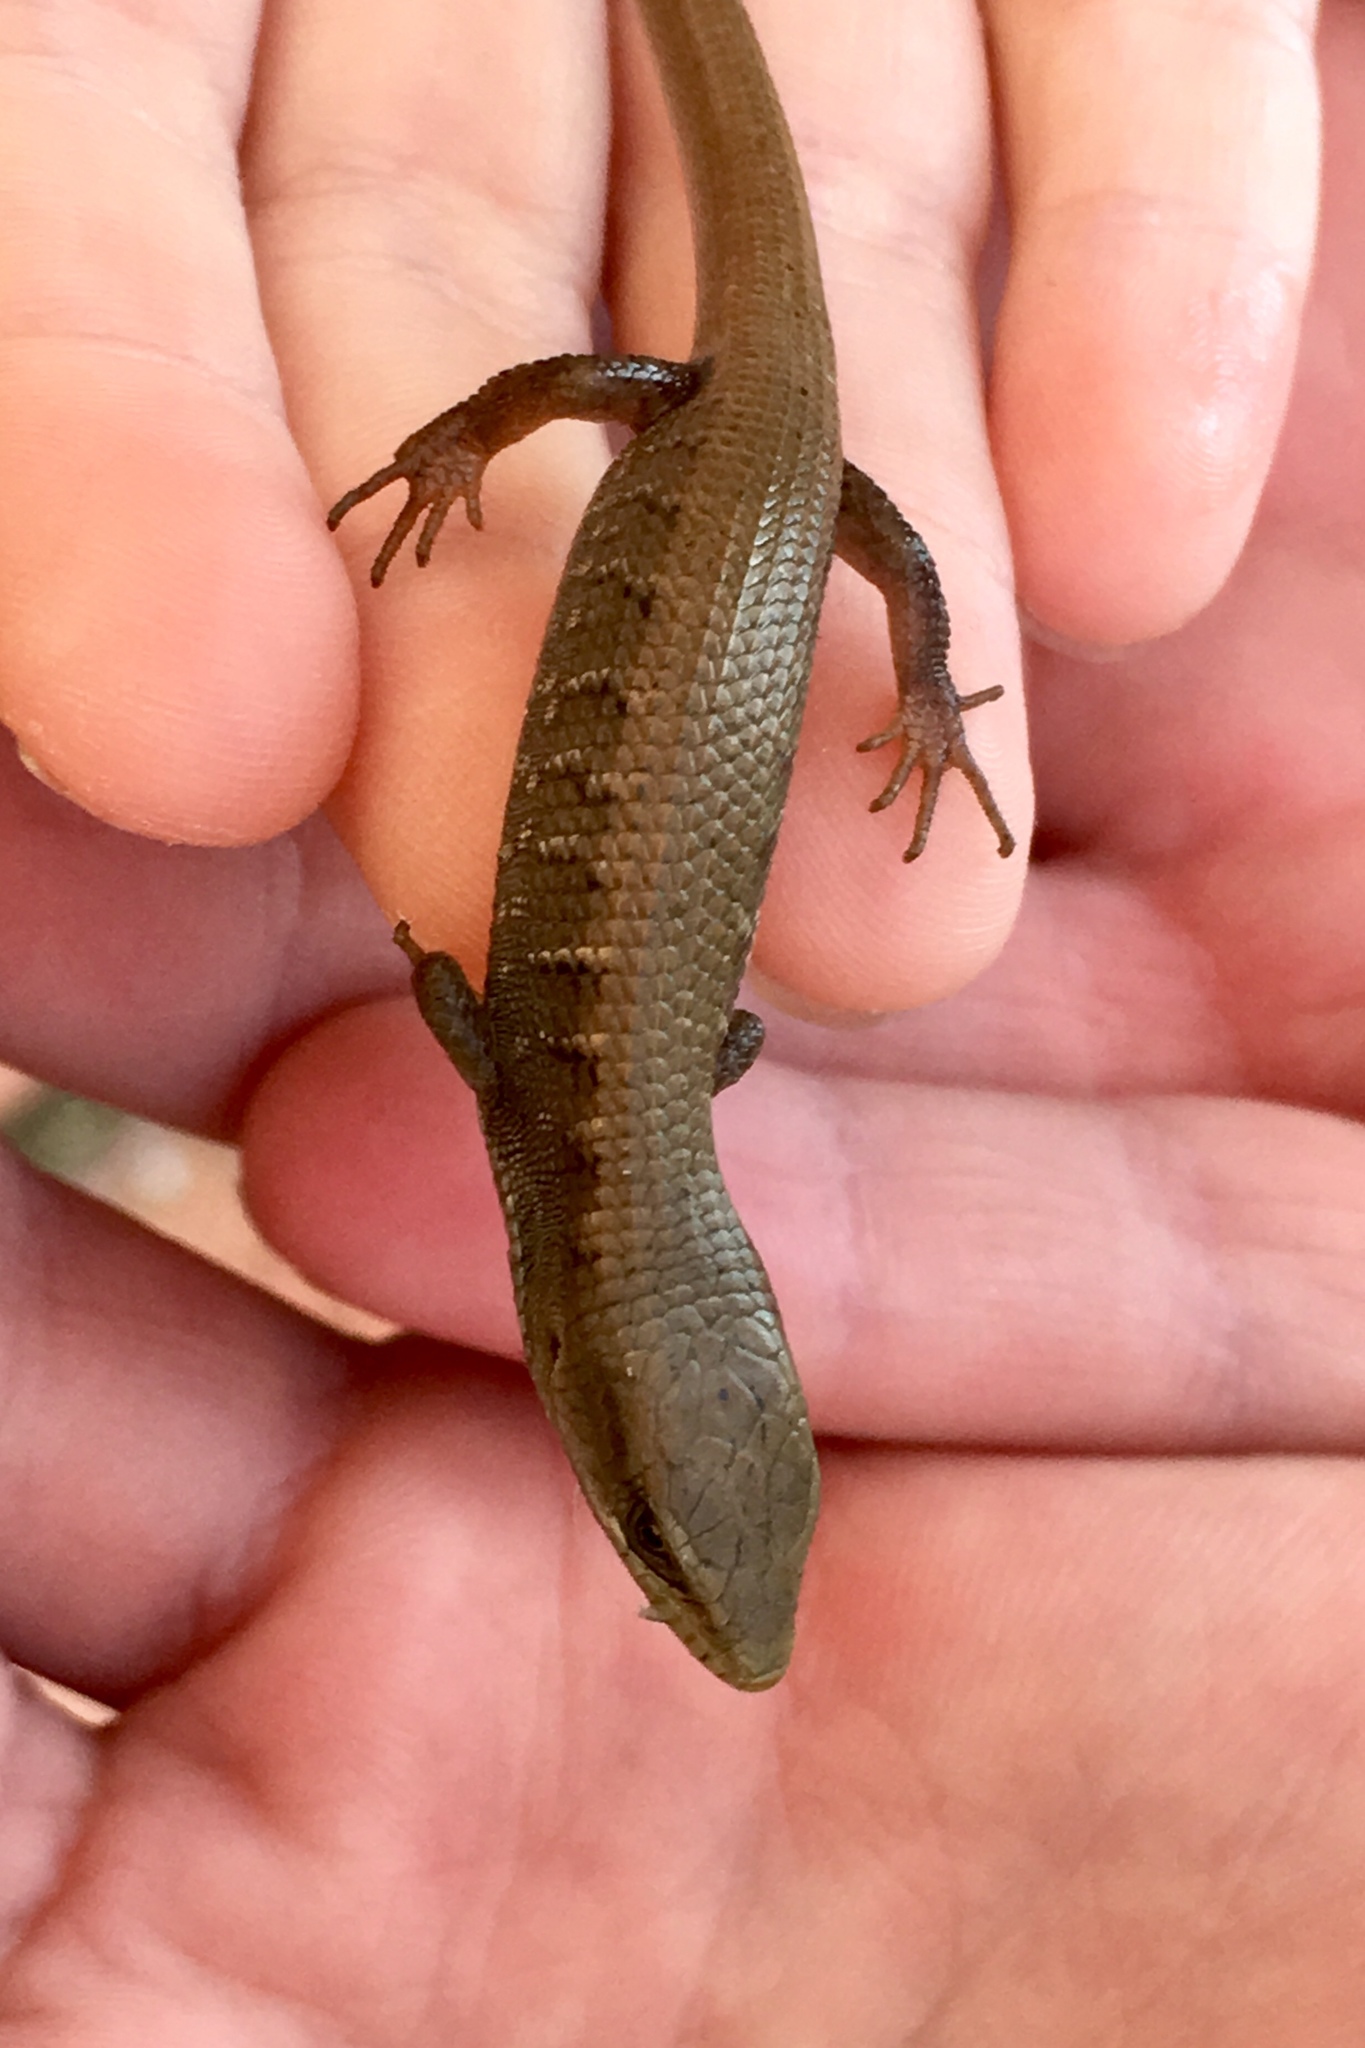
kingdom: Animalia
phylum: Chordata
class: Squamata
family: Anguidae
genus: Elgaria
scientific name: Elgaria multicarinata
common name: Southern alligator lizard
